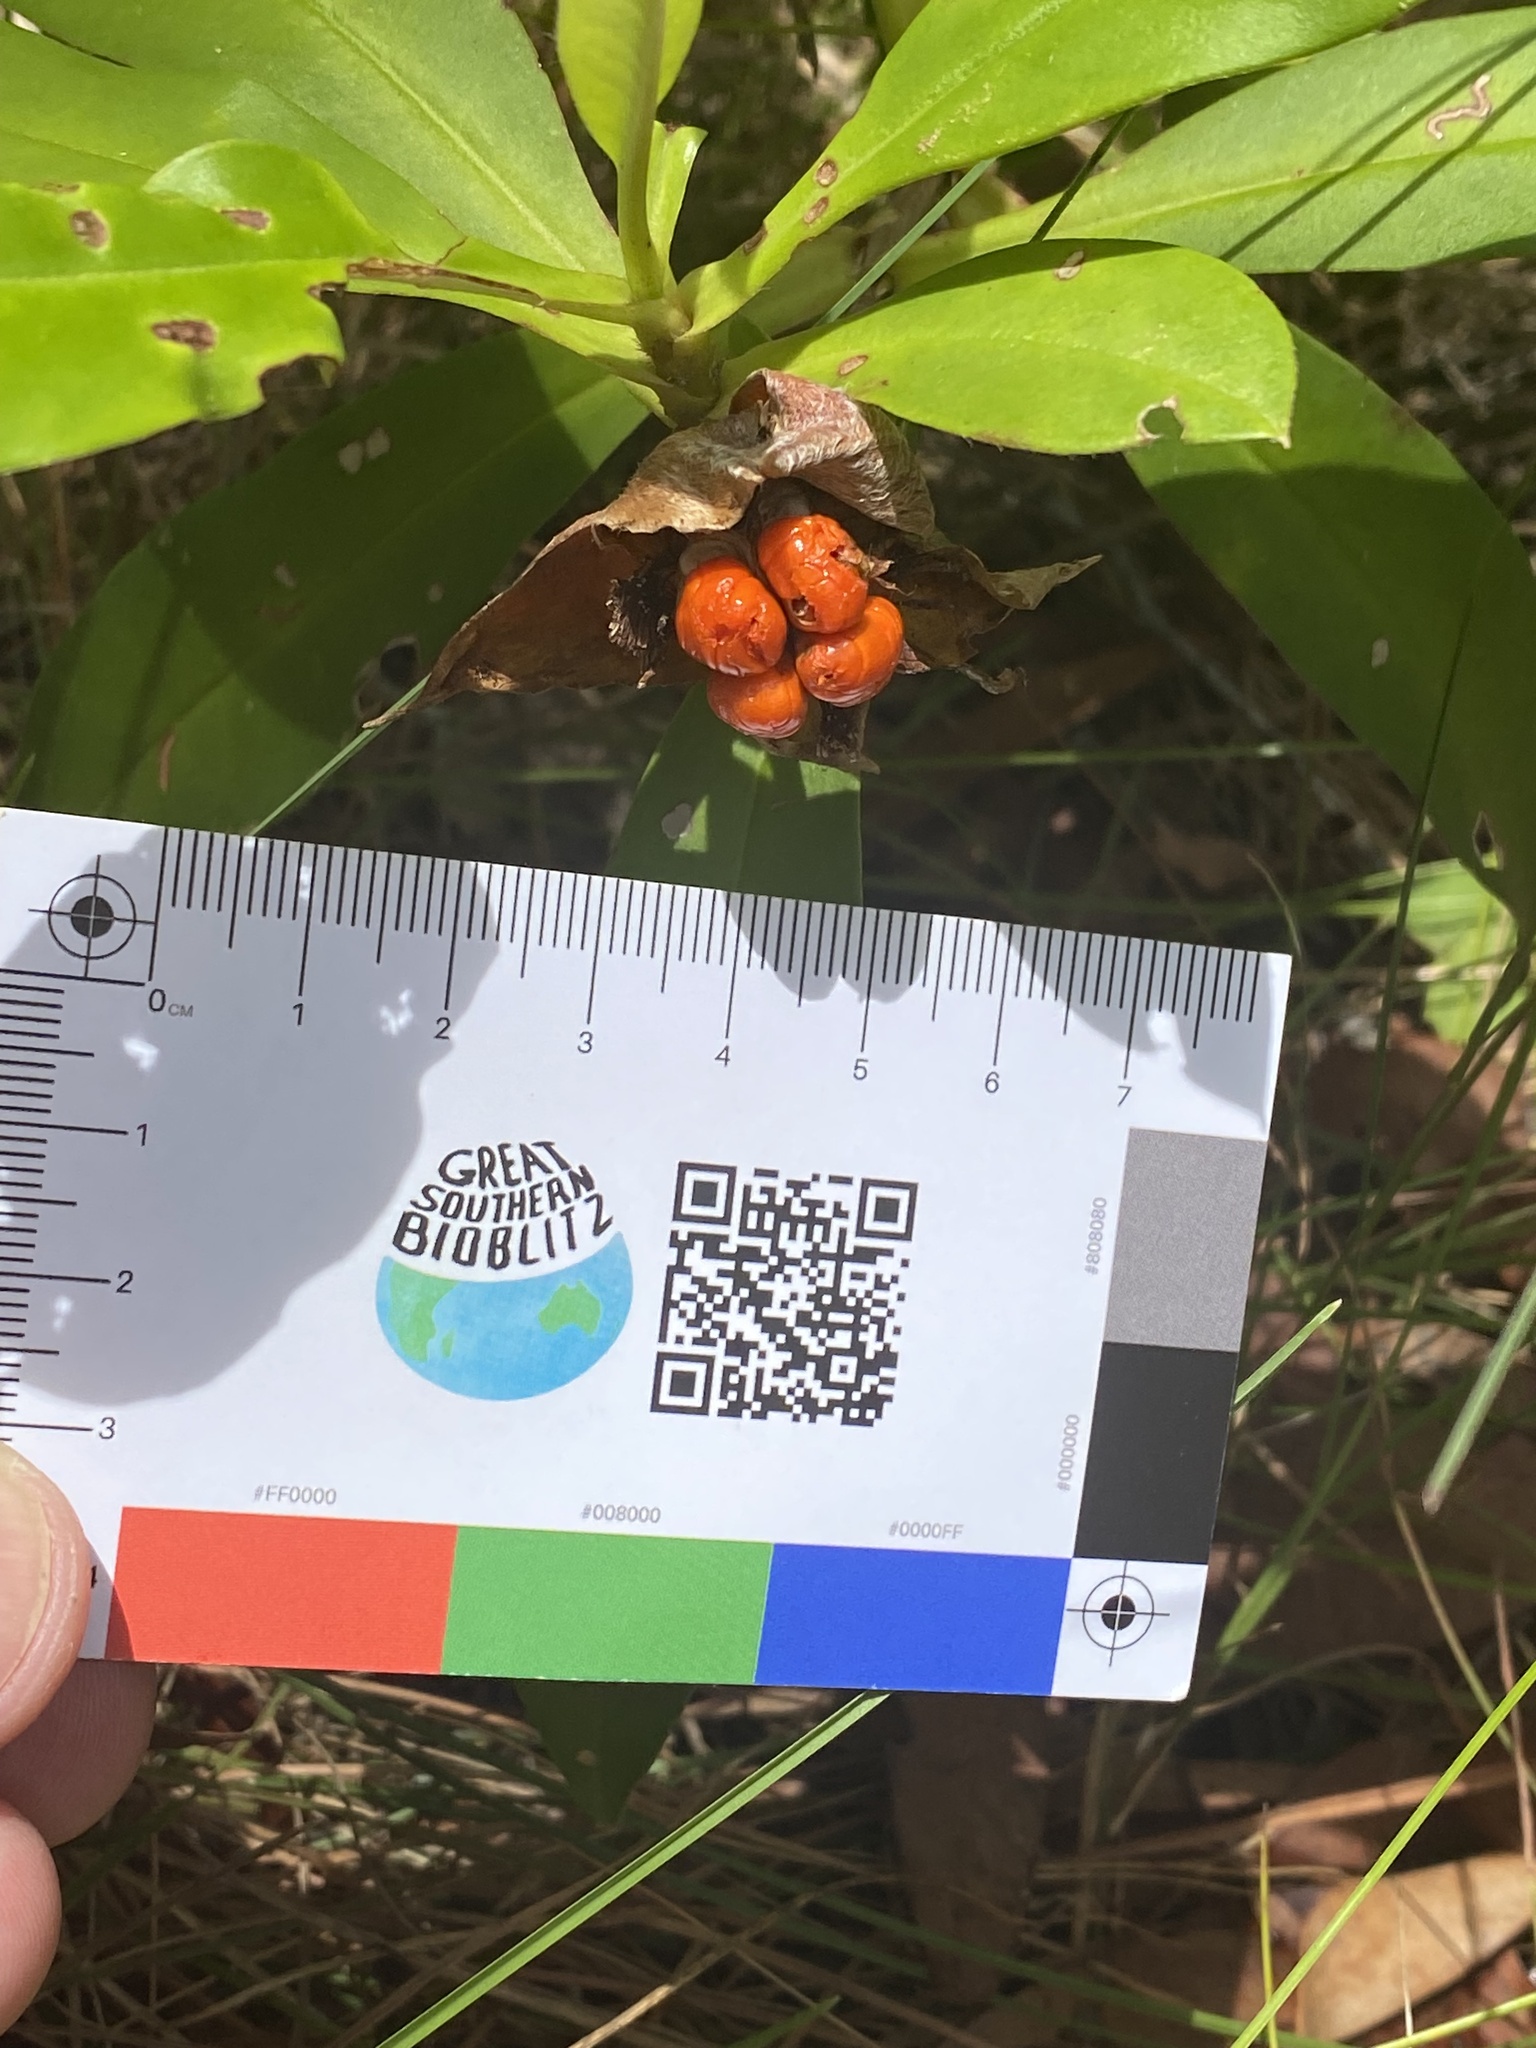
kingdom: Plantae
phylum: Tracheophyta
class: Magnoliopsida
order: Dilleniales
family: Dilleniaceae
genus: Hibbertia
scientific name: Hibbertia scandens
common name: Climbing guinea-flower
